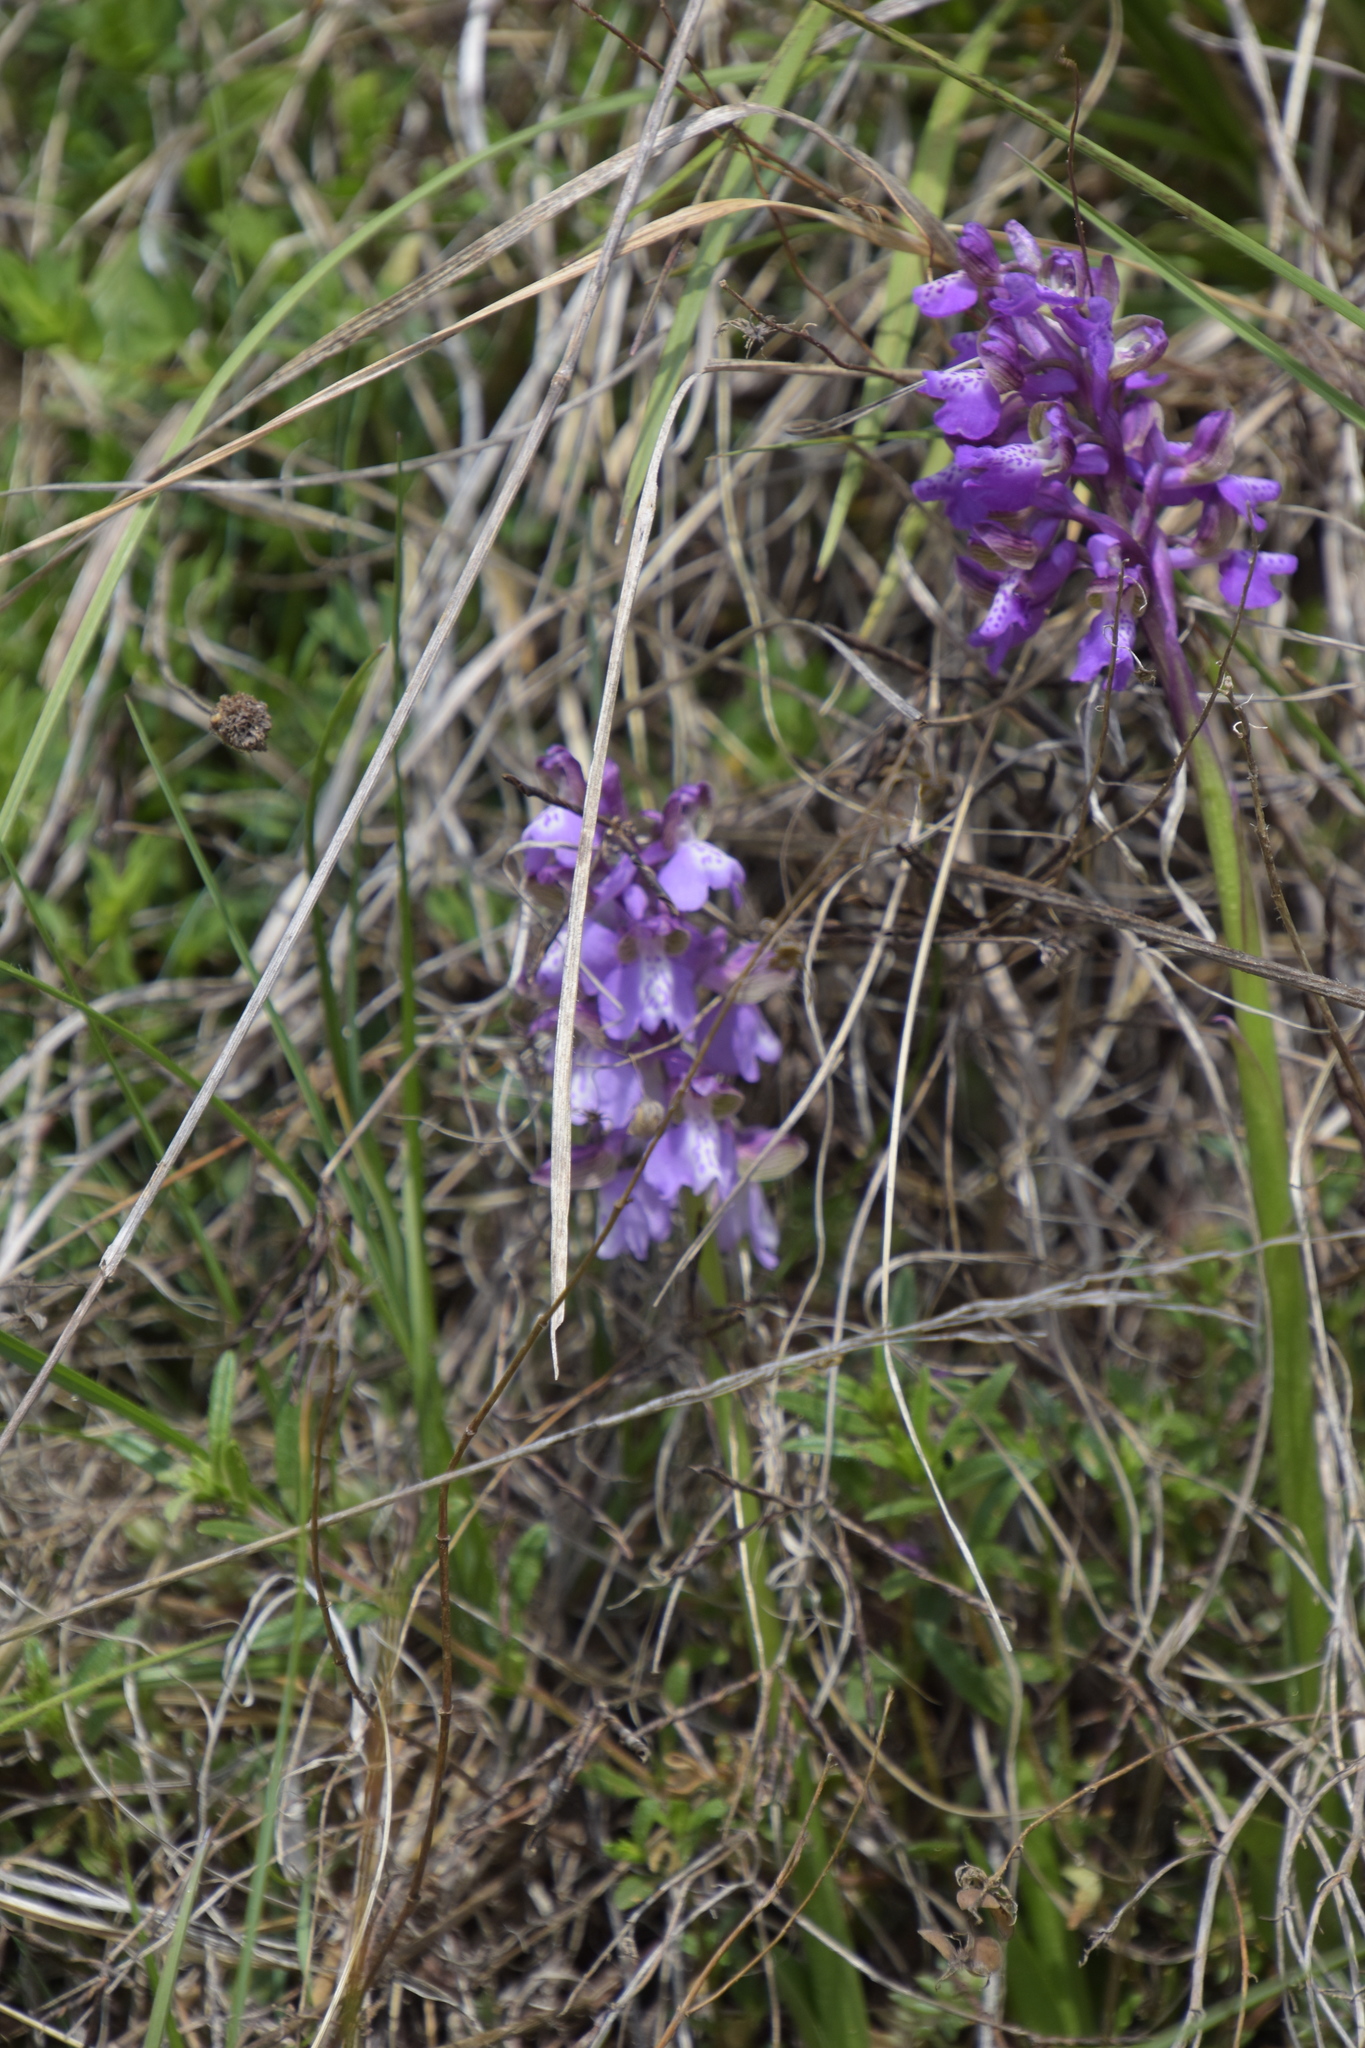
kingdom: Plantae
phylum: Tracheophyta
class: Liliopsida
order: Asparagales
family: Orchidaceae
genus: Anacamptis
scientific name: Anacamptis morio
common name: Green-winged orchid
